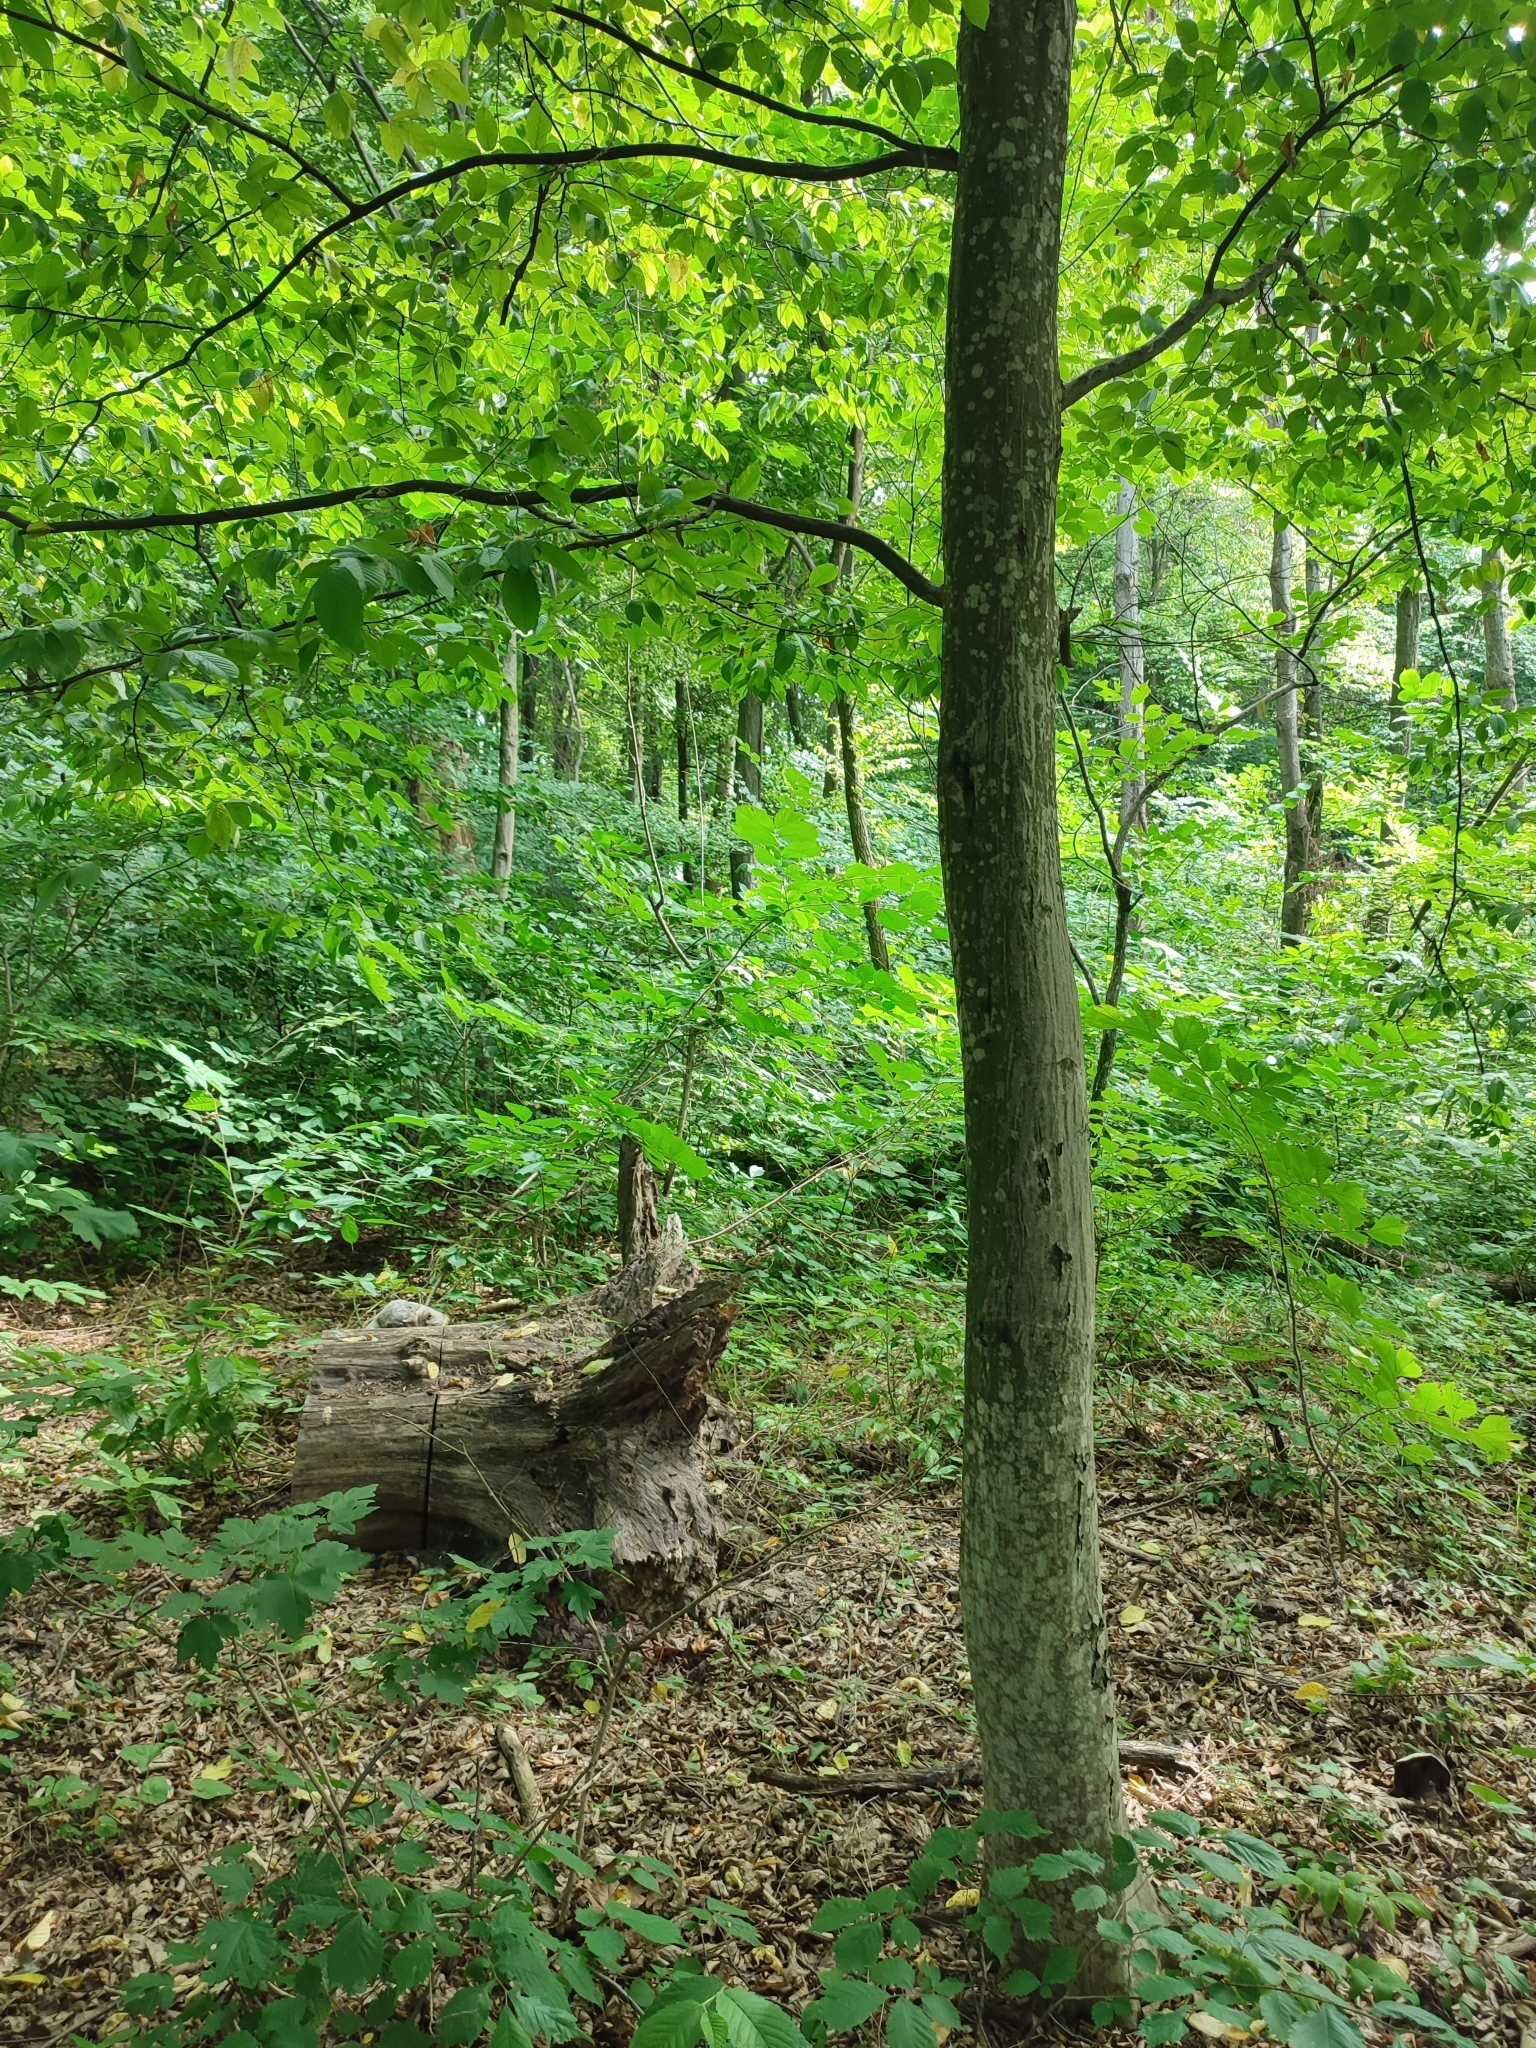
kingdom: Plantae
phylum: Tracheophyta
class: Magnoliopsida
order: Fagales
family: Betulaceae
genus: Carpinus
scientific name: Carpinus betulus
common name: Hornbeam
